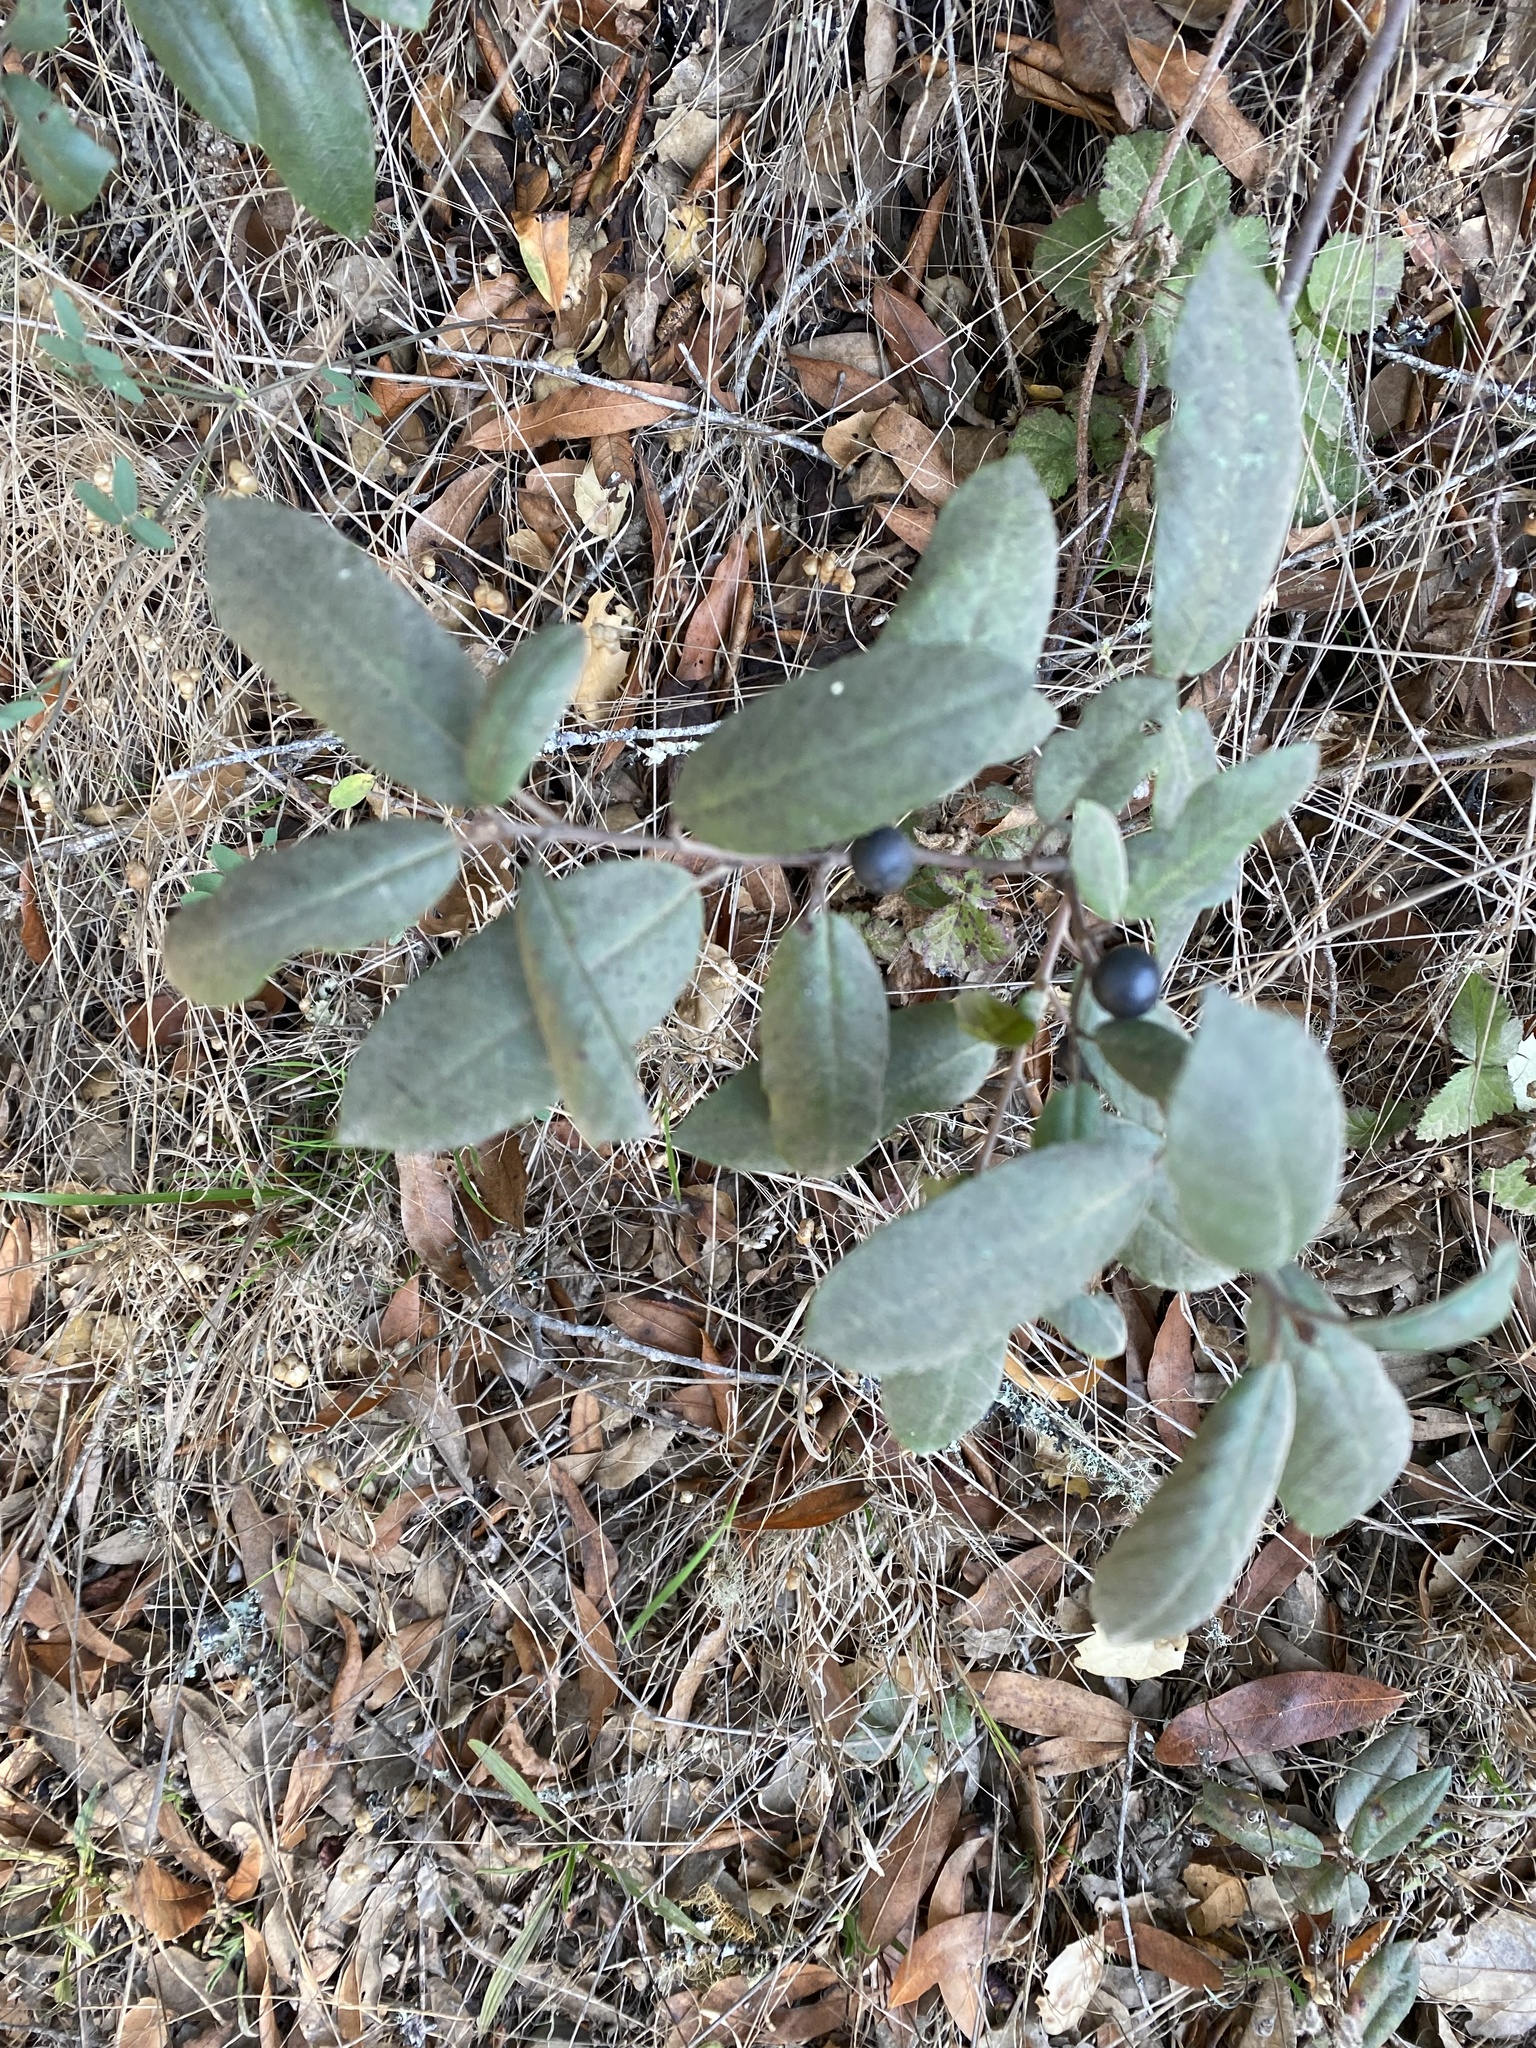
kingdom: Plantae
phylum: Tracheophyta
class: Magnoliopsida
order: Rosales
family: Rhamnaceae
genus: Frangula
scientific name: Frangula californica
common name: California buckthorn
